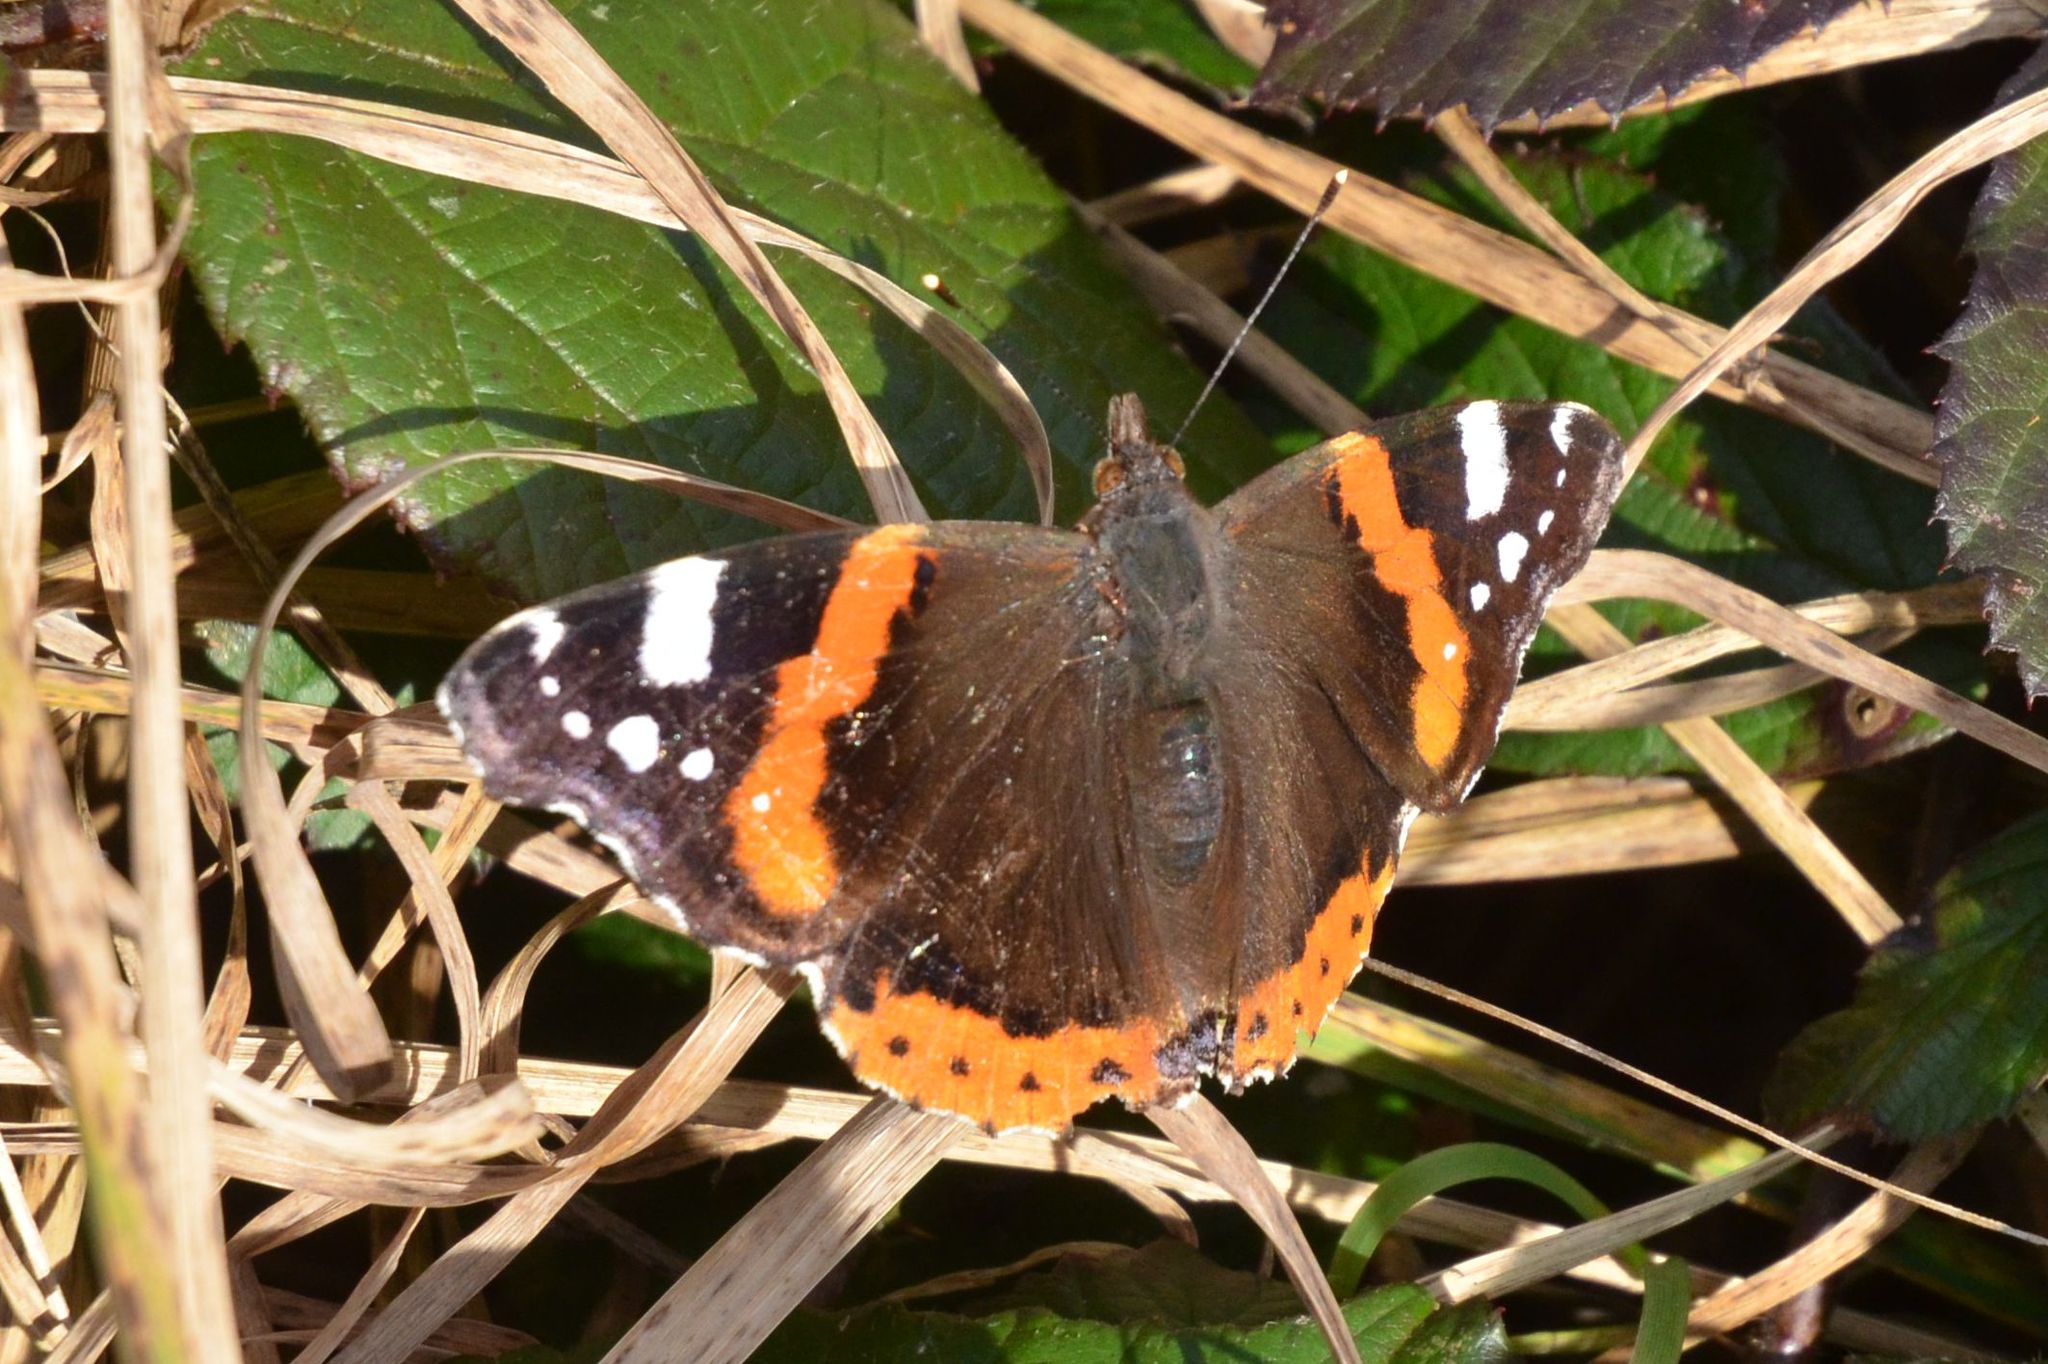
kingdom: Animalia
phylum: Arthropoda
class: Insecta
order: Lepidoptera
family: Nymphalidae
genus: Vanessa
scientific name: Vanessa atalanta
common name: Red admiral
